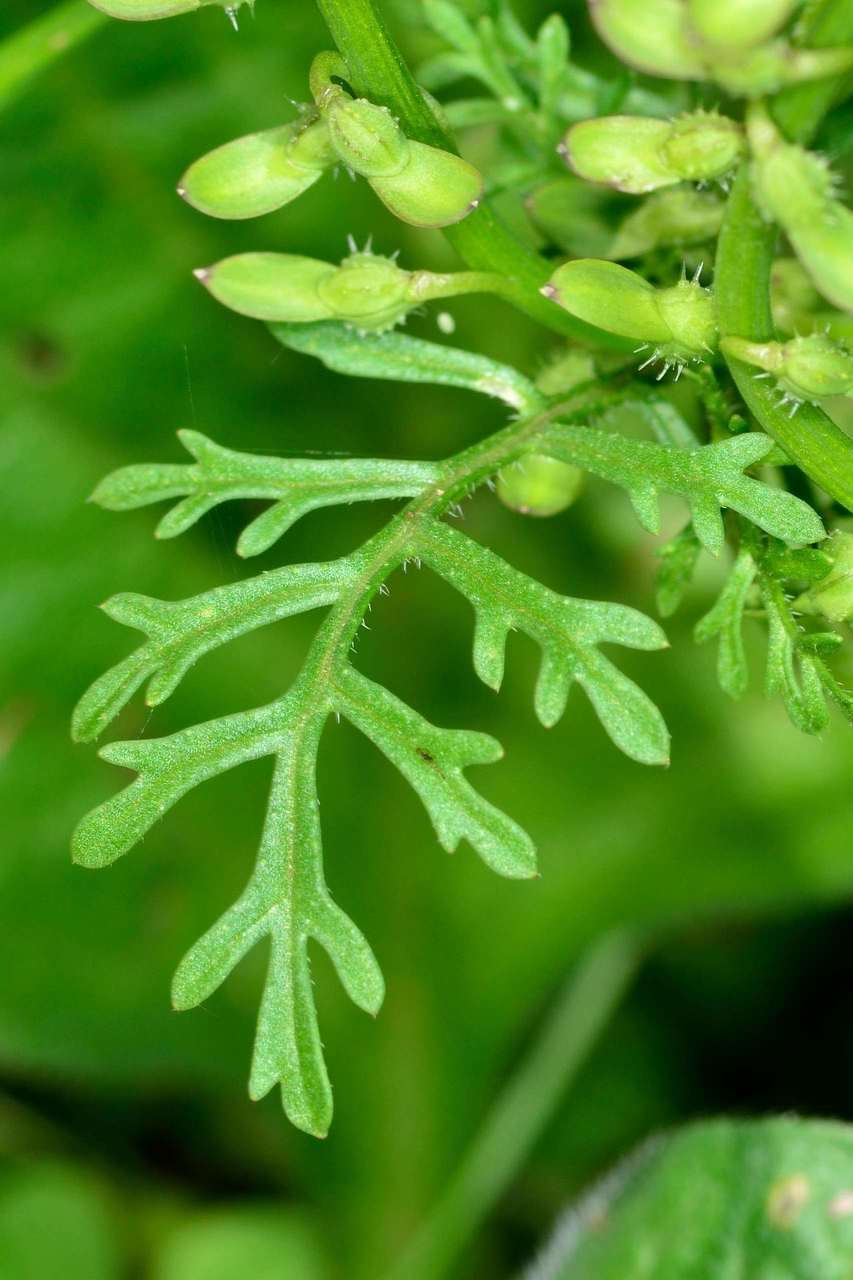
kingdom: Plantae
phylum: Tracheophyta
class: Magnoliopsida
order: Brassicales
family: Brassicaceae
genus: Carrichtera
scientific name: Carrichtera annua
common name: Cress rocket
